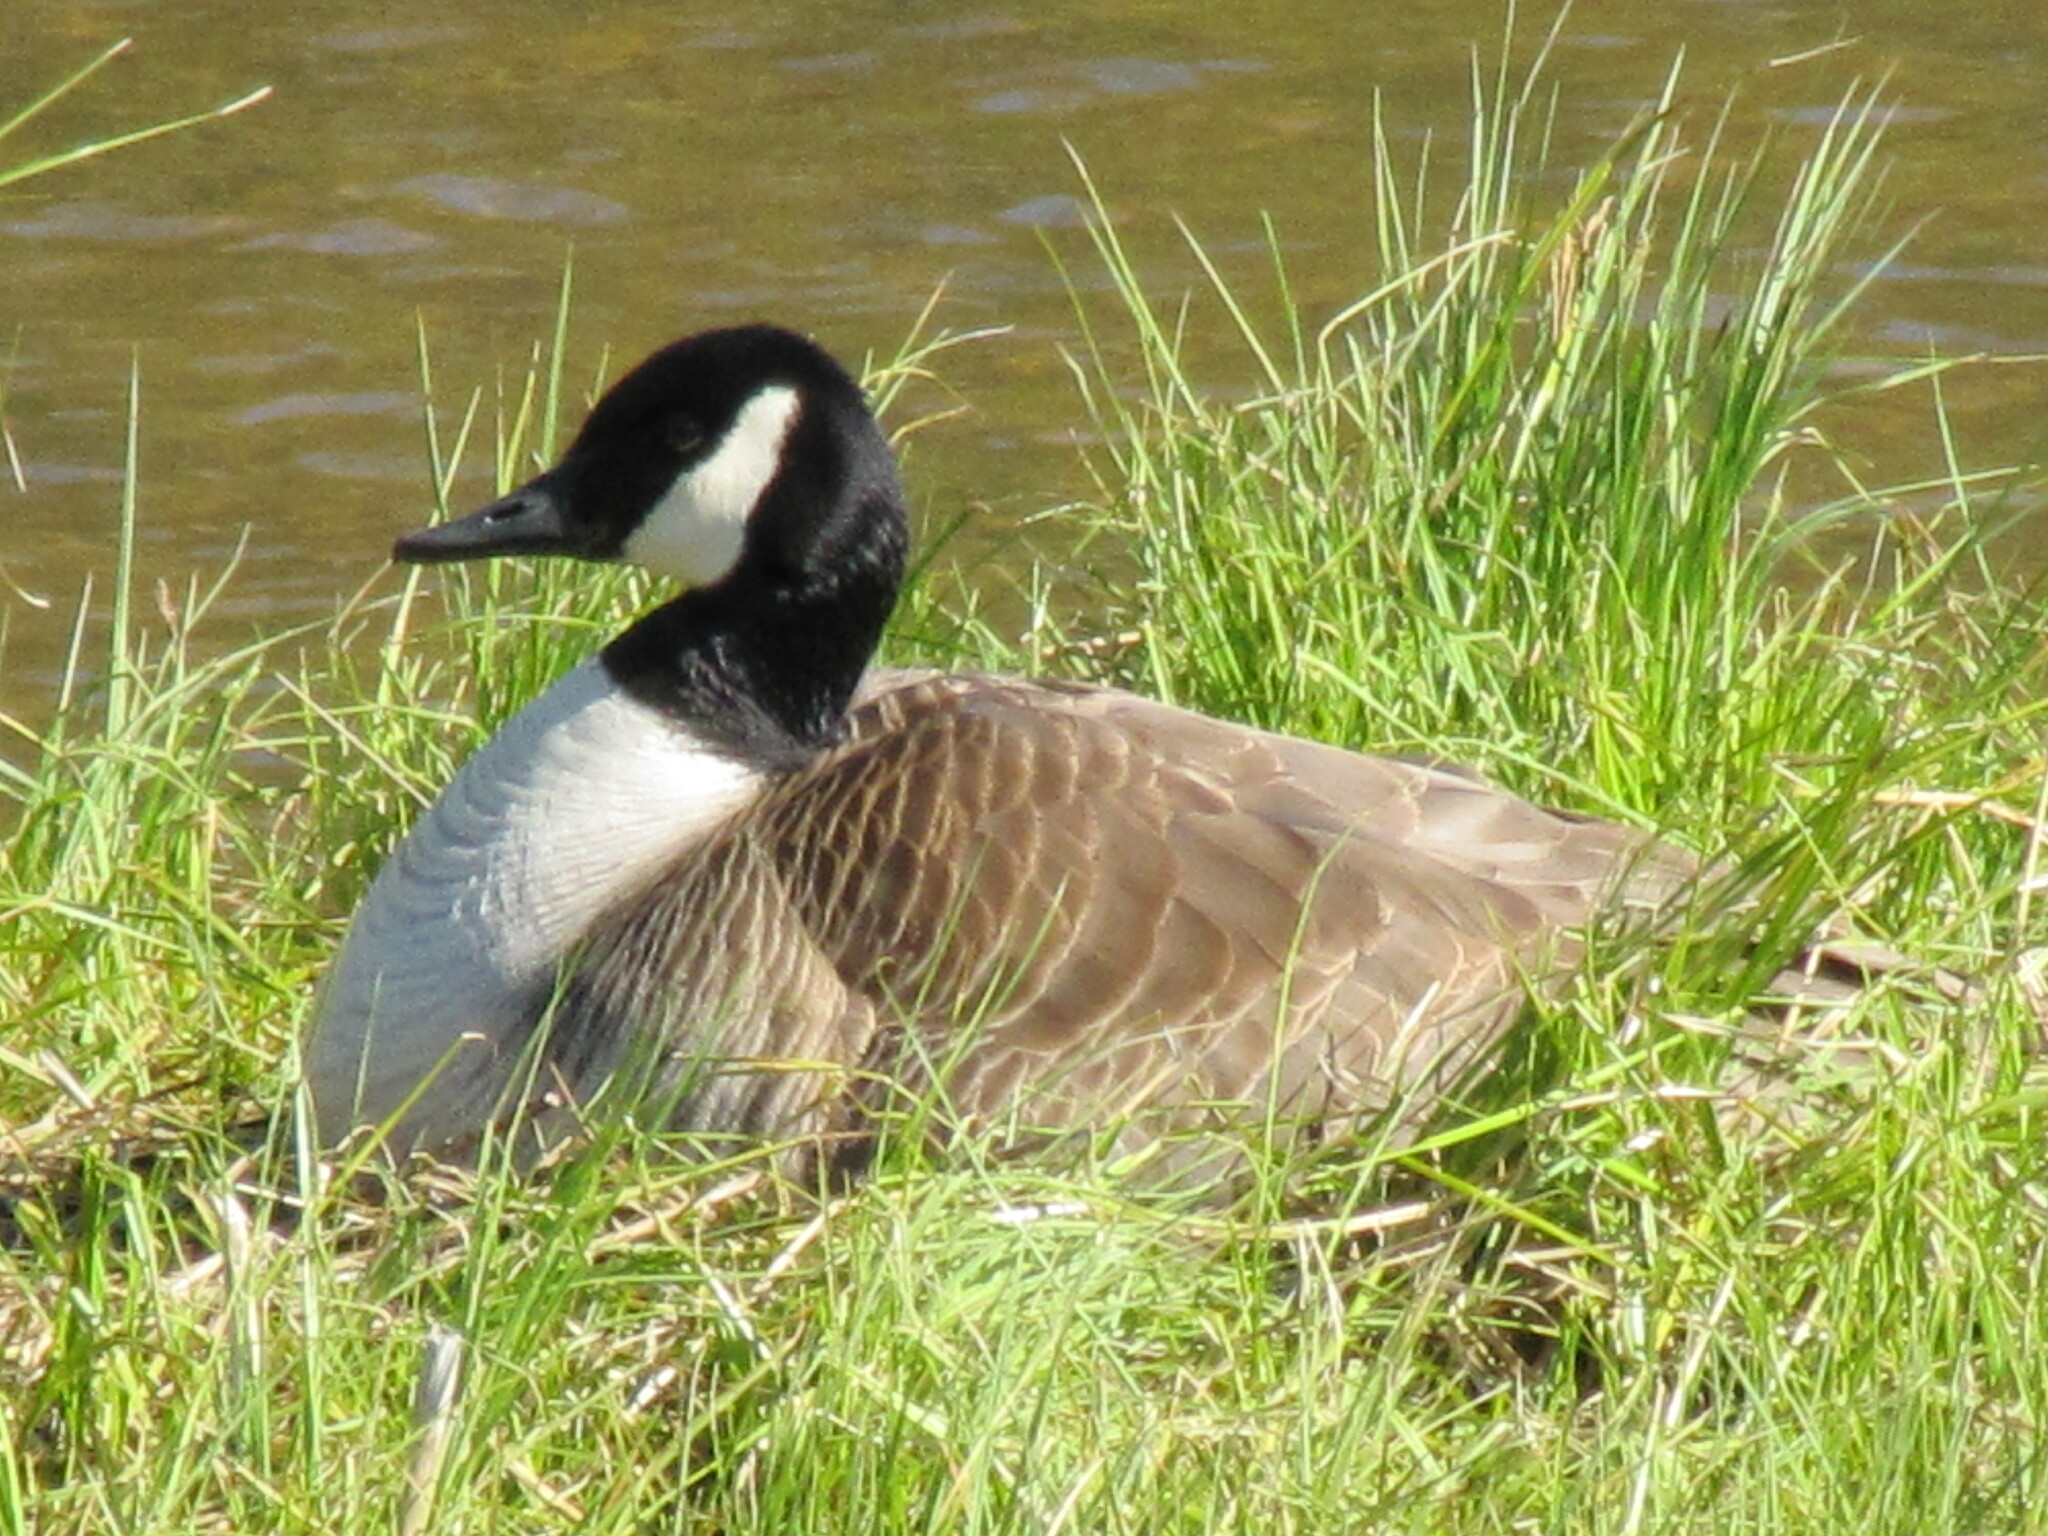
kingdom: Animalia
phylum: Chordata
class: Aves
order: Anseriformes
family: Anatidae
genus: Branta
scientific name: Branta canadensis
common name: Canada goose
